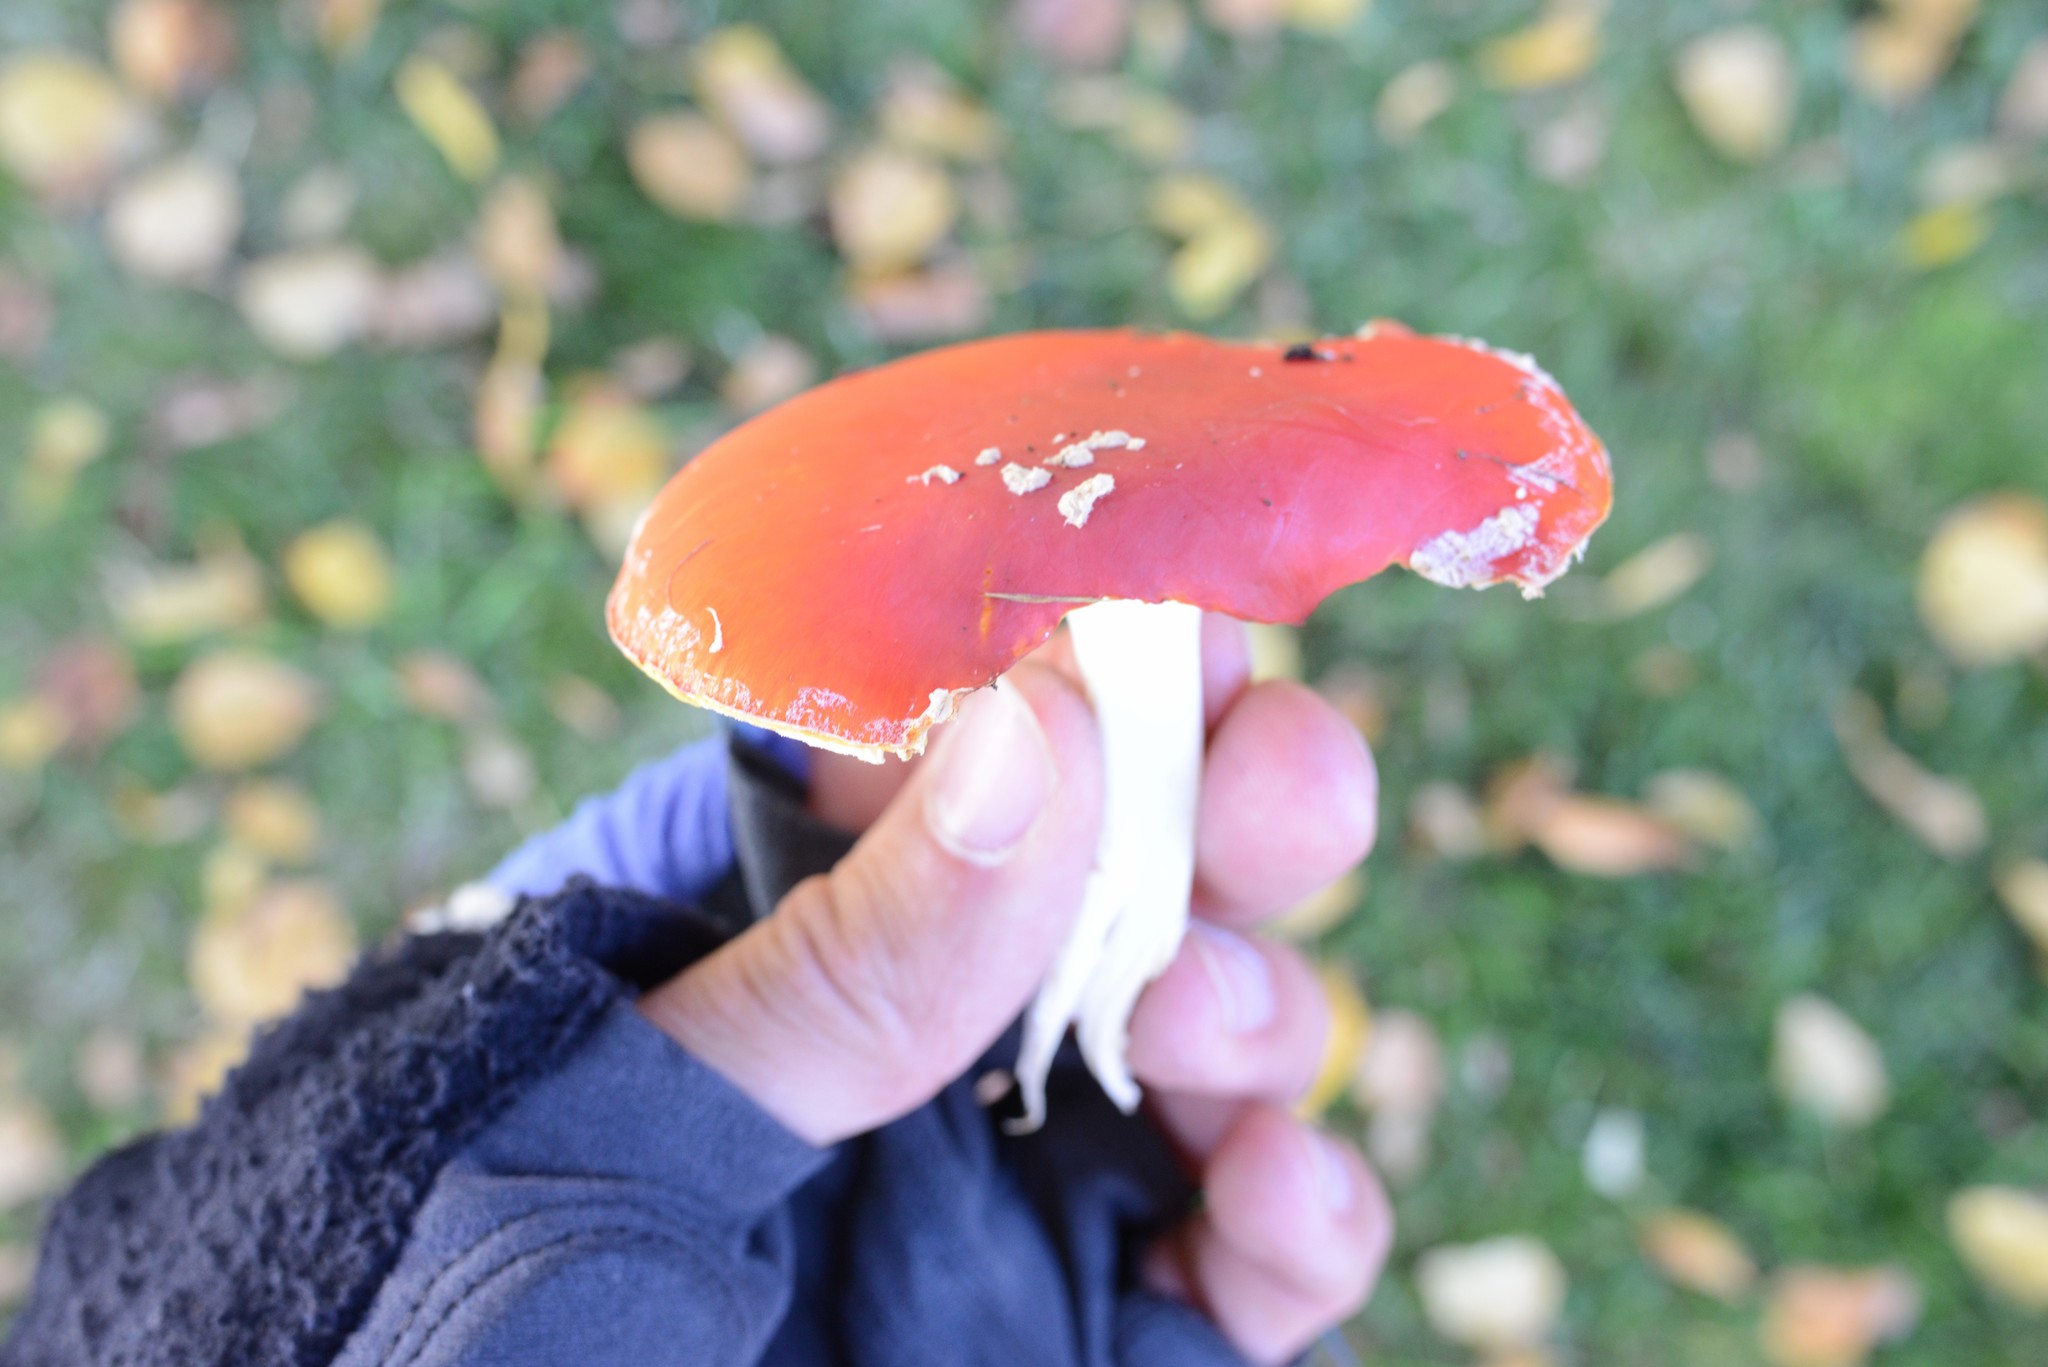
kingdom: Fungi
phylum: Basidiomycota
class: Agaricomycetes
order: Agaricales
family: Amanitaceae
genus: Amanita
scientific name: Amanita muscaria
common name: Fly agaric
